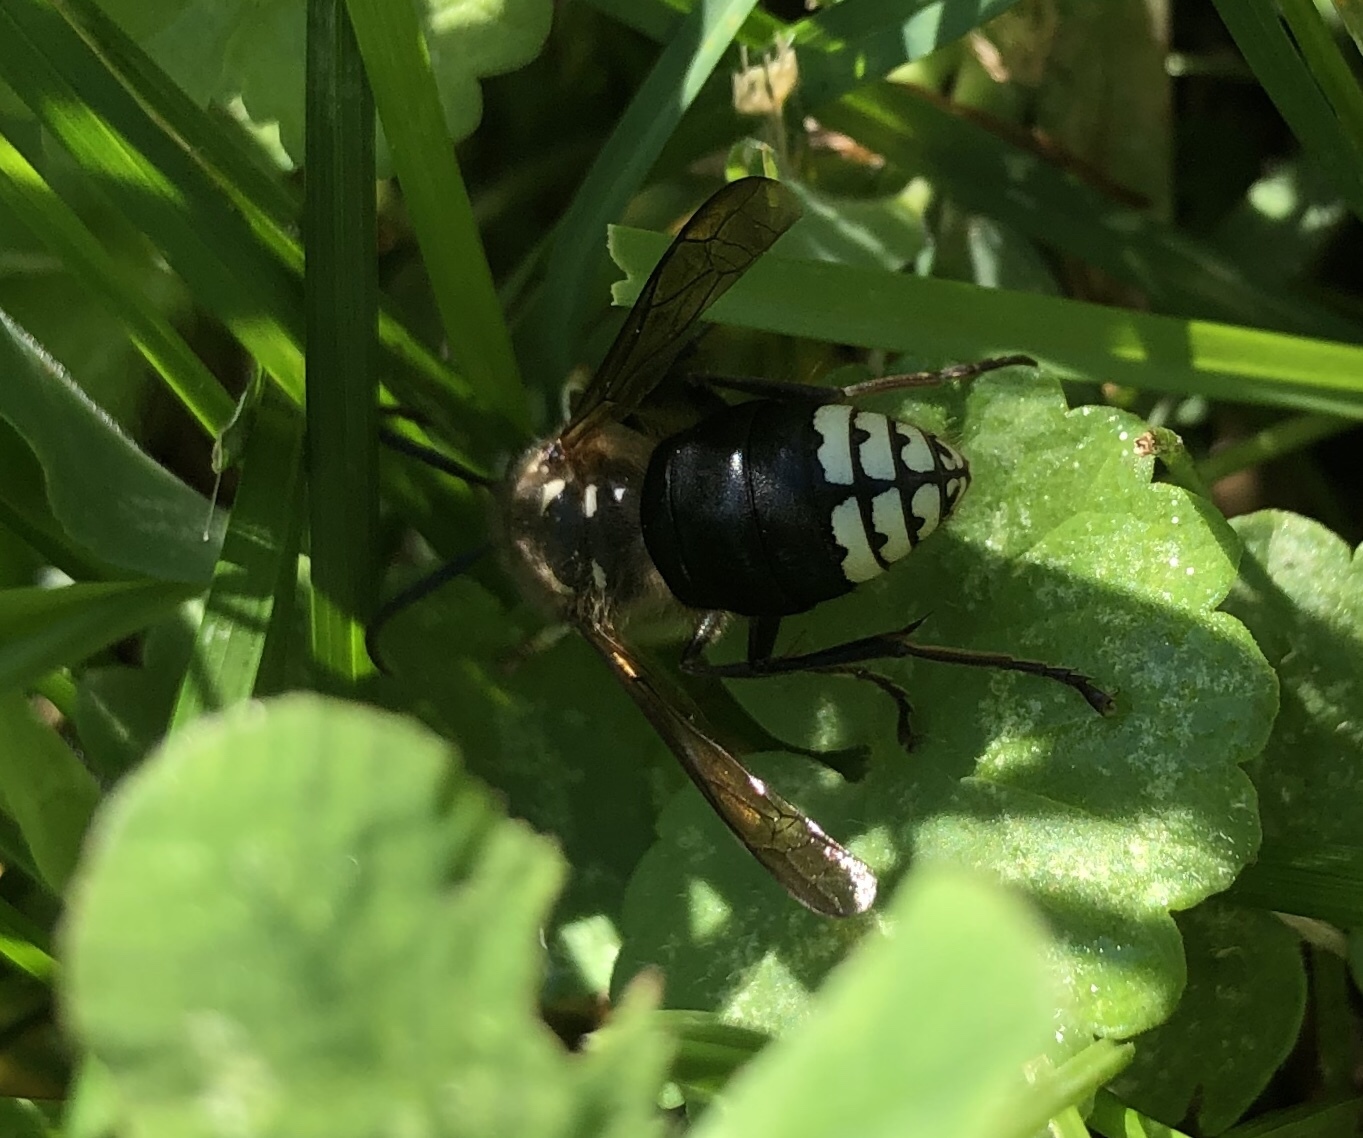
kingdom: Animalia
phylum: Arthropoda
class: Insecta
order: Hymenoptera
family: Vespidae
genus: Dolichovespula
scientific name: Dolichovespula maculata
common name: Bald-faced hornet
